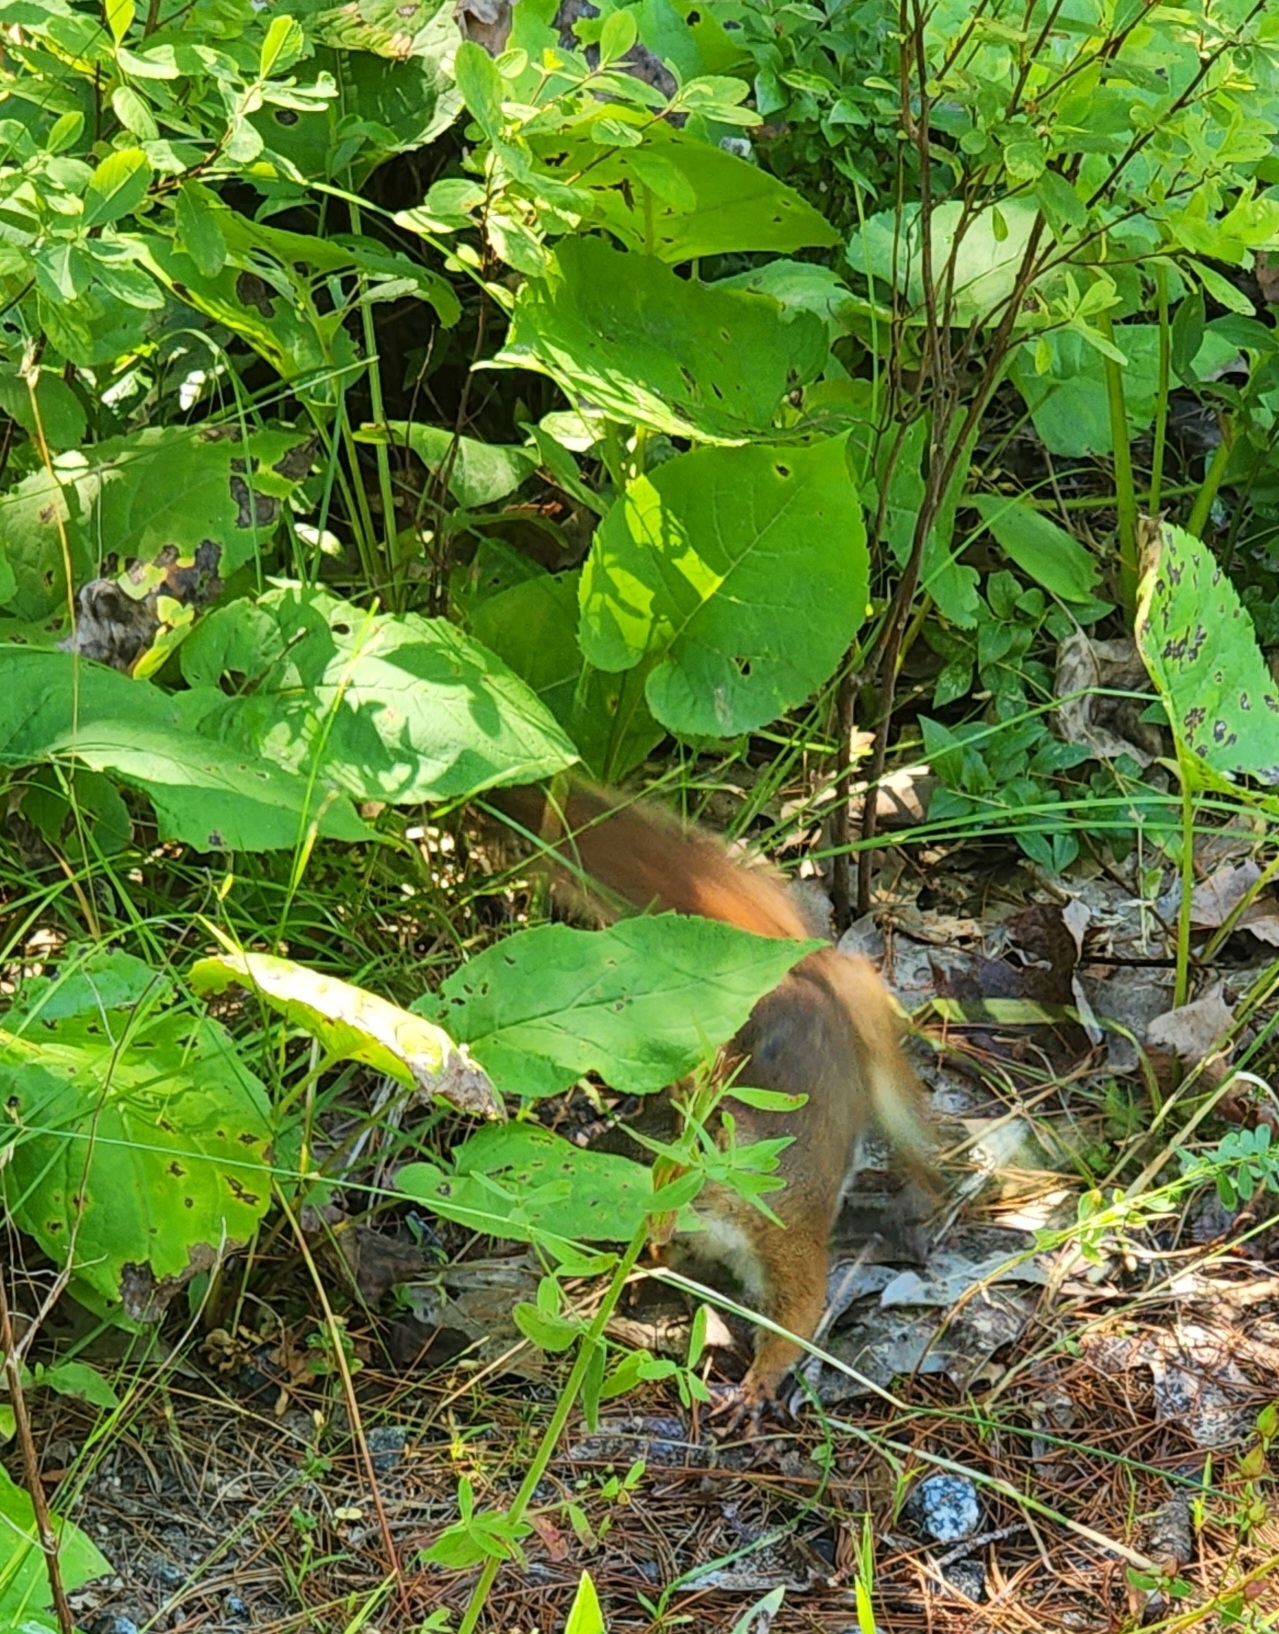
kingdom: Animalia
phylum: Chordata
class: Mammalia
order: Rodentia
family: Sciuridae
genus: Tamiasciurus
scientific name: Tamiasciurus hudsonicus
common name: Red squirrel
